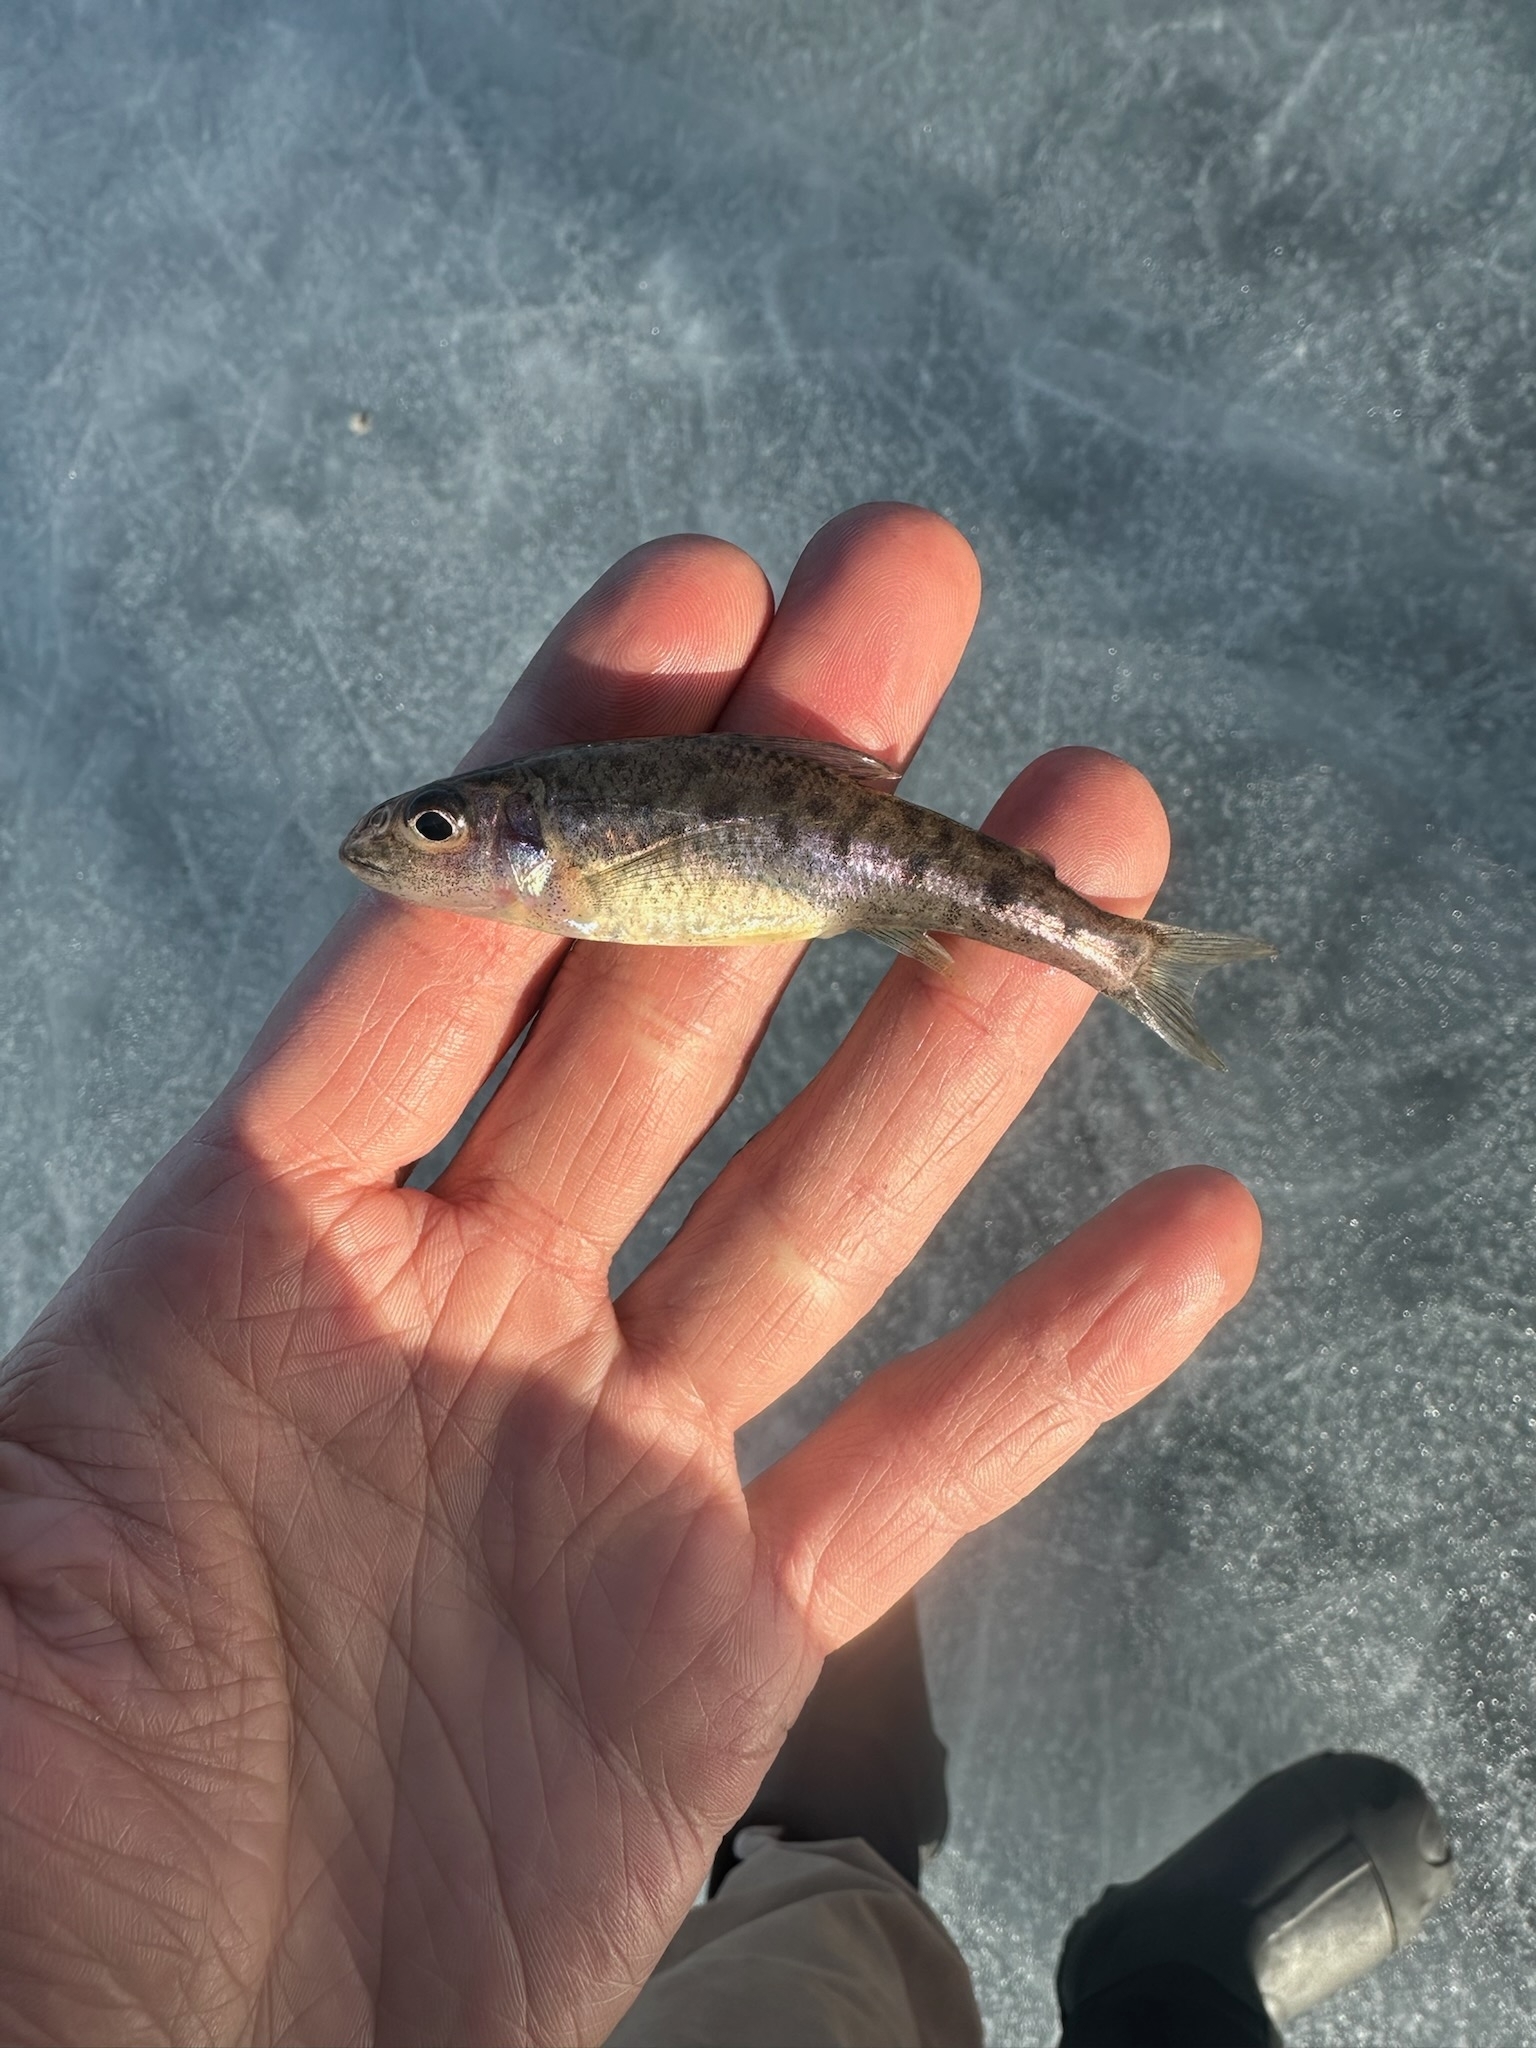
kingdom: Animalia
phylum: Chordata
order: Percopsiformes
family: Percopsidae
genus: Percopsis
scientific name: Percopsis omiscomaycus
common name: Trout-perch
